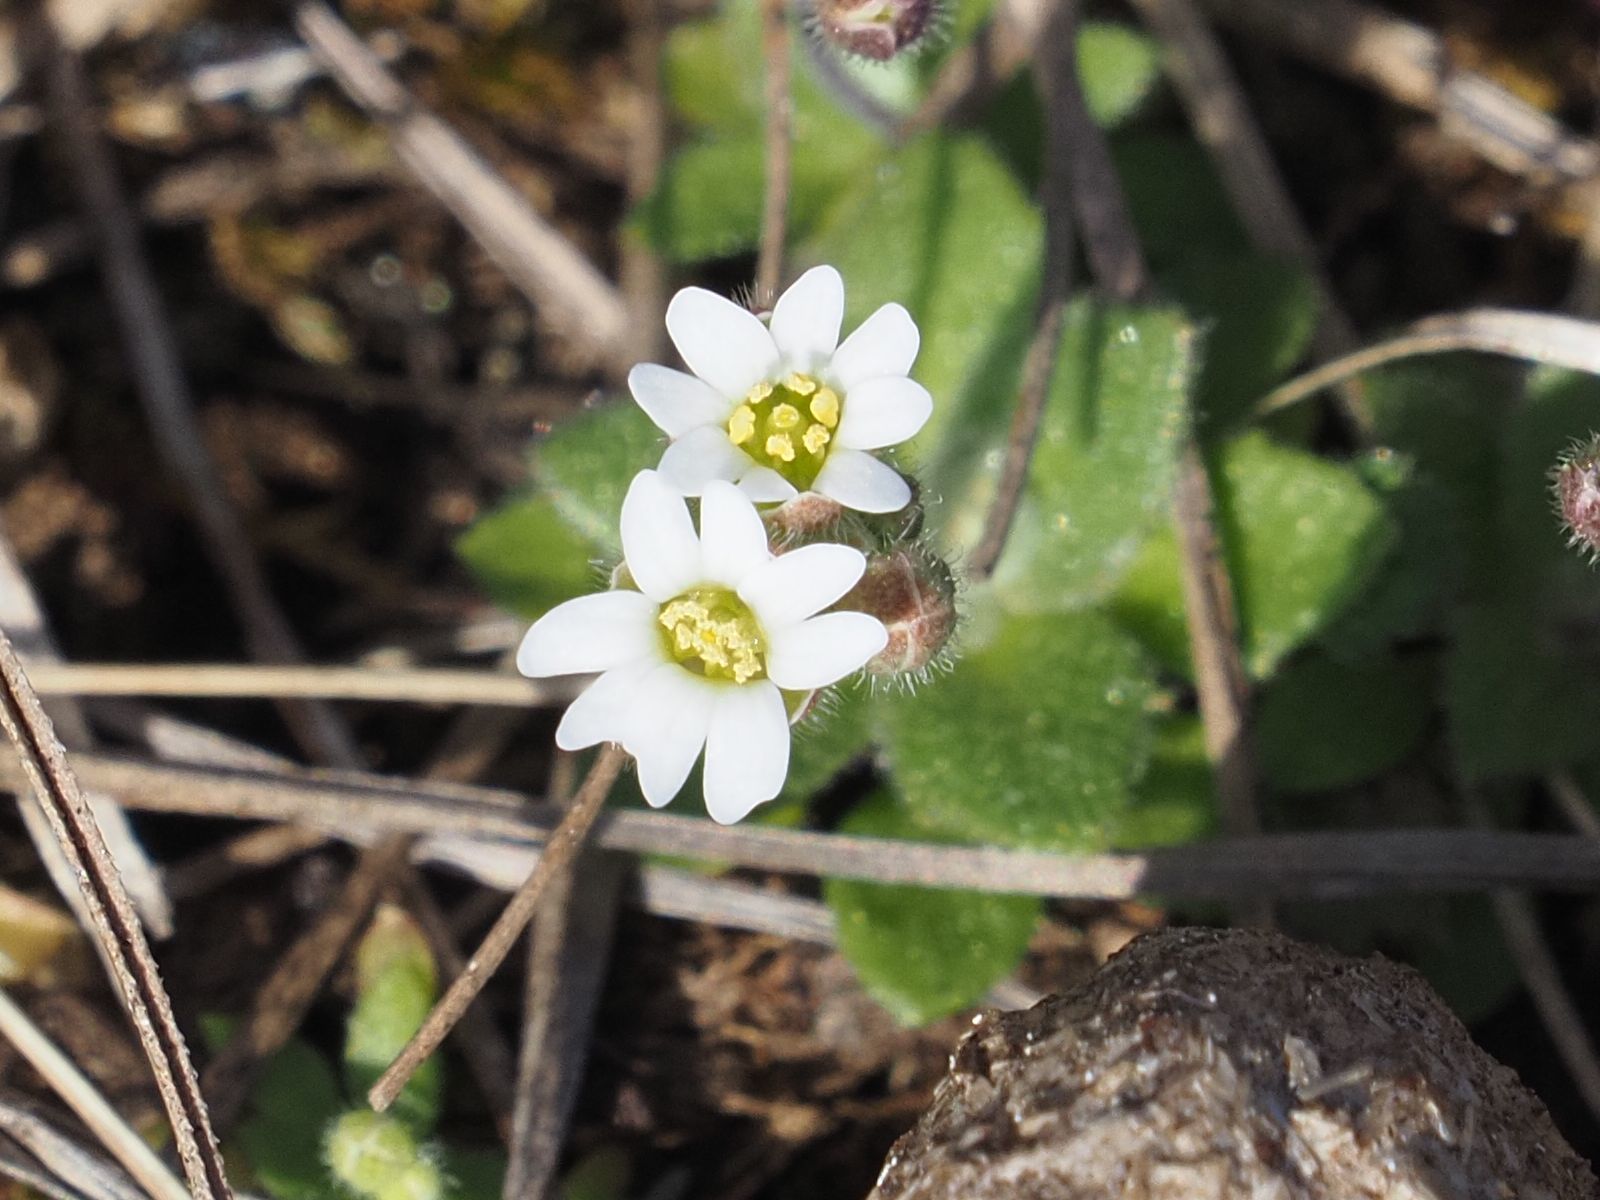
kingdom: Plantae
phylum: Tracheophyta
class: Magnoliopsida
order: Brassicales
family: Brassicaceae
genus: Draba
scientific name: Draba verna
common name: Spring draba
